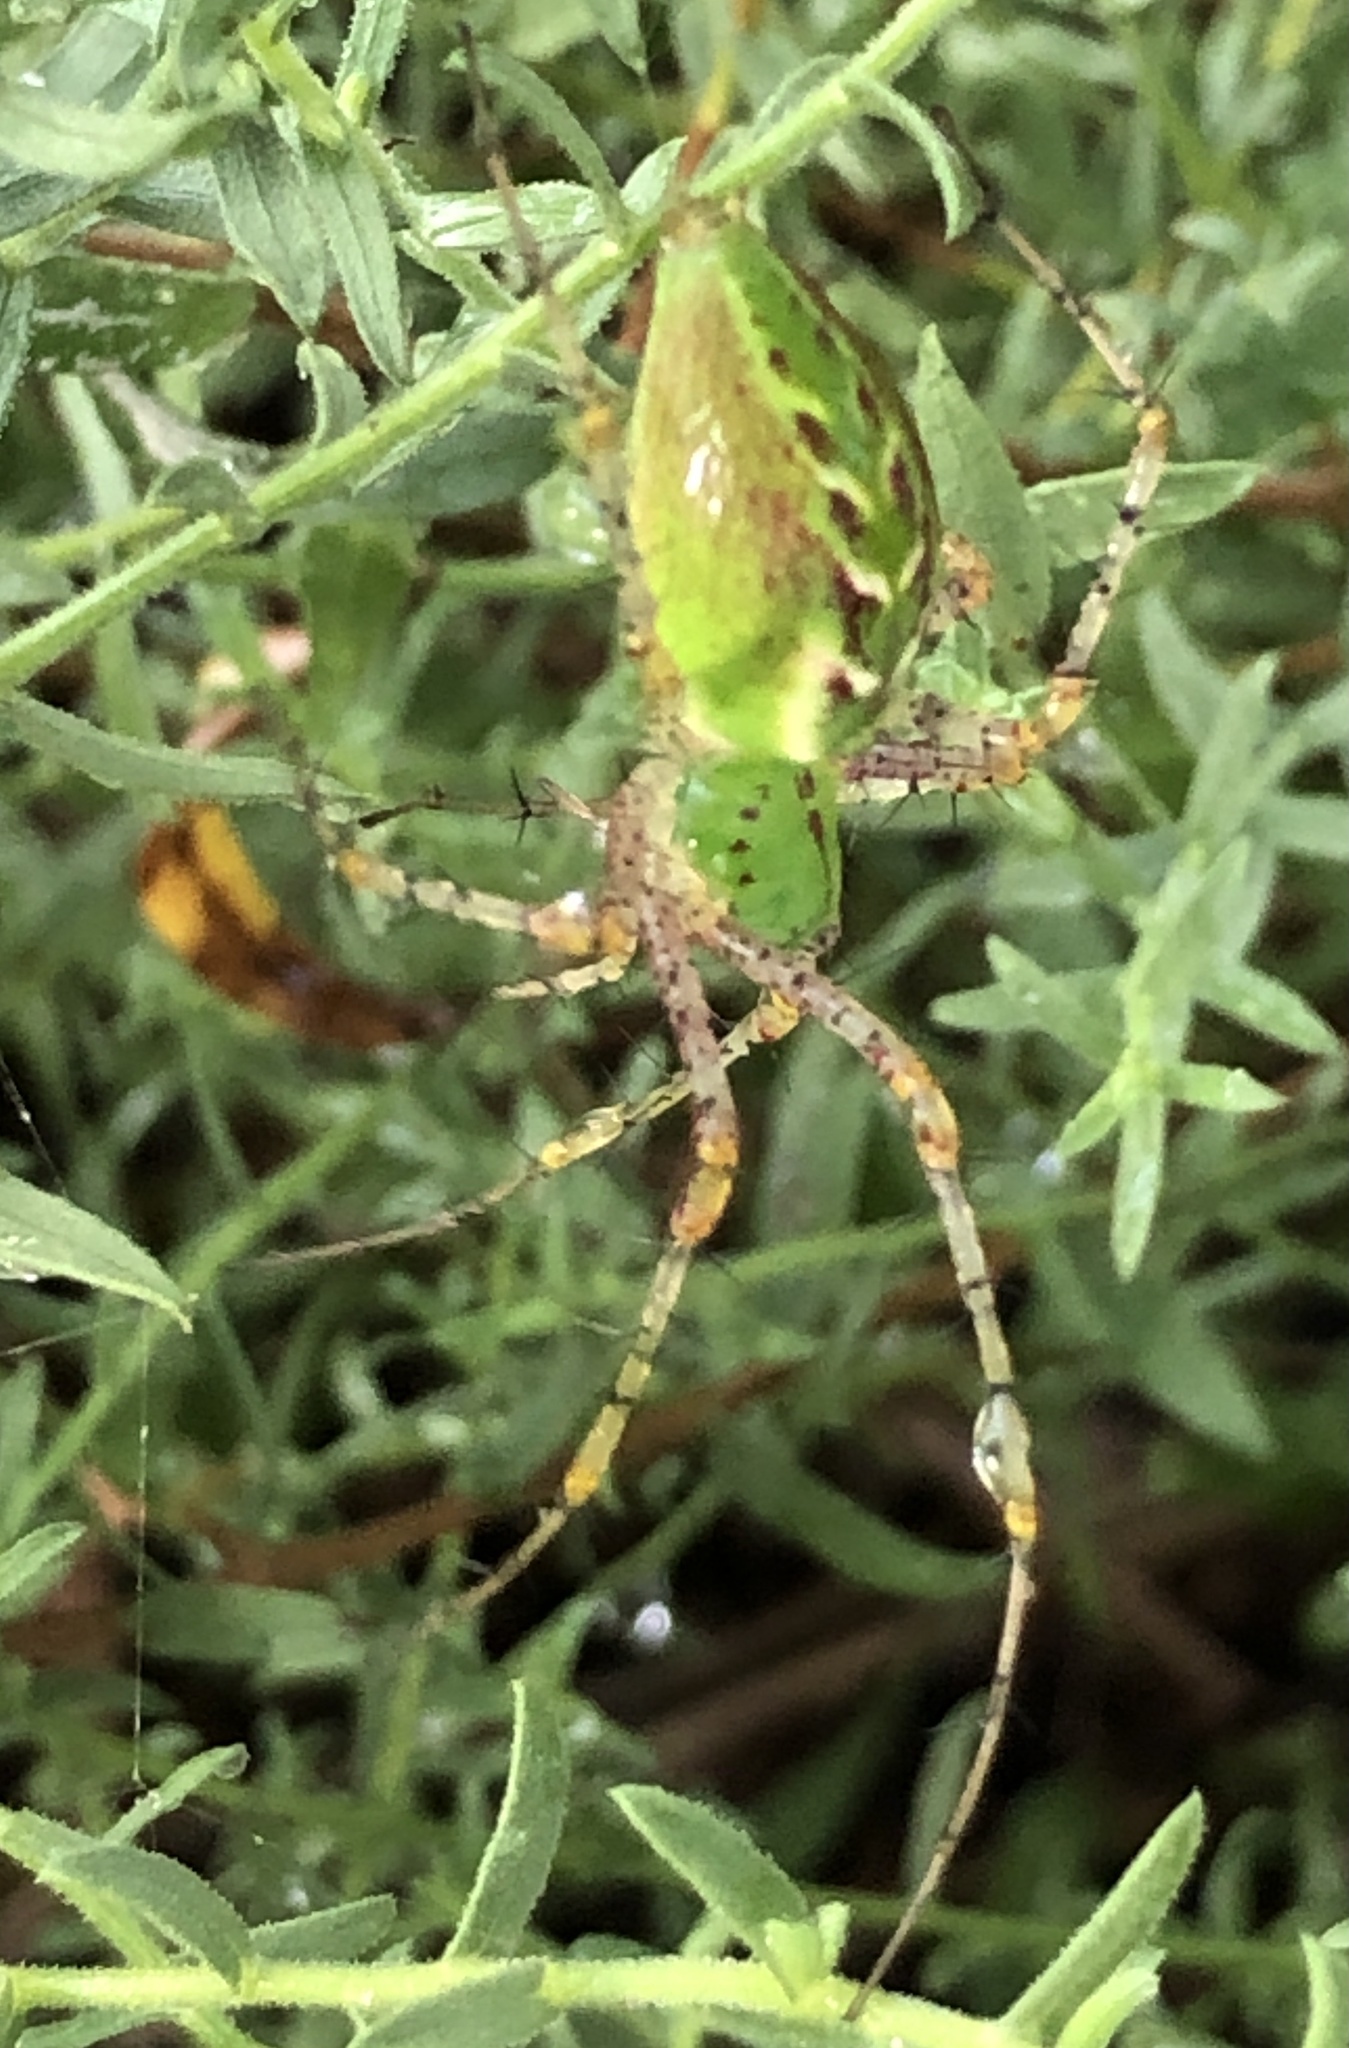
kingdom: Animalia
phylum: Arthropoda
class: Arachnida
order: Araneae
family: Oxyopidae
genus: Peucetia
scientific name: Peucetia viridans
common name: Lynx spiders
